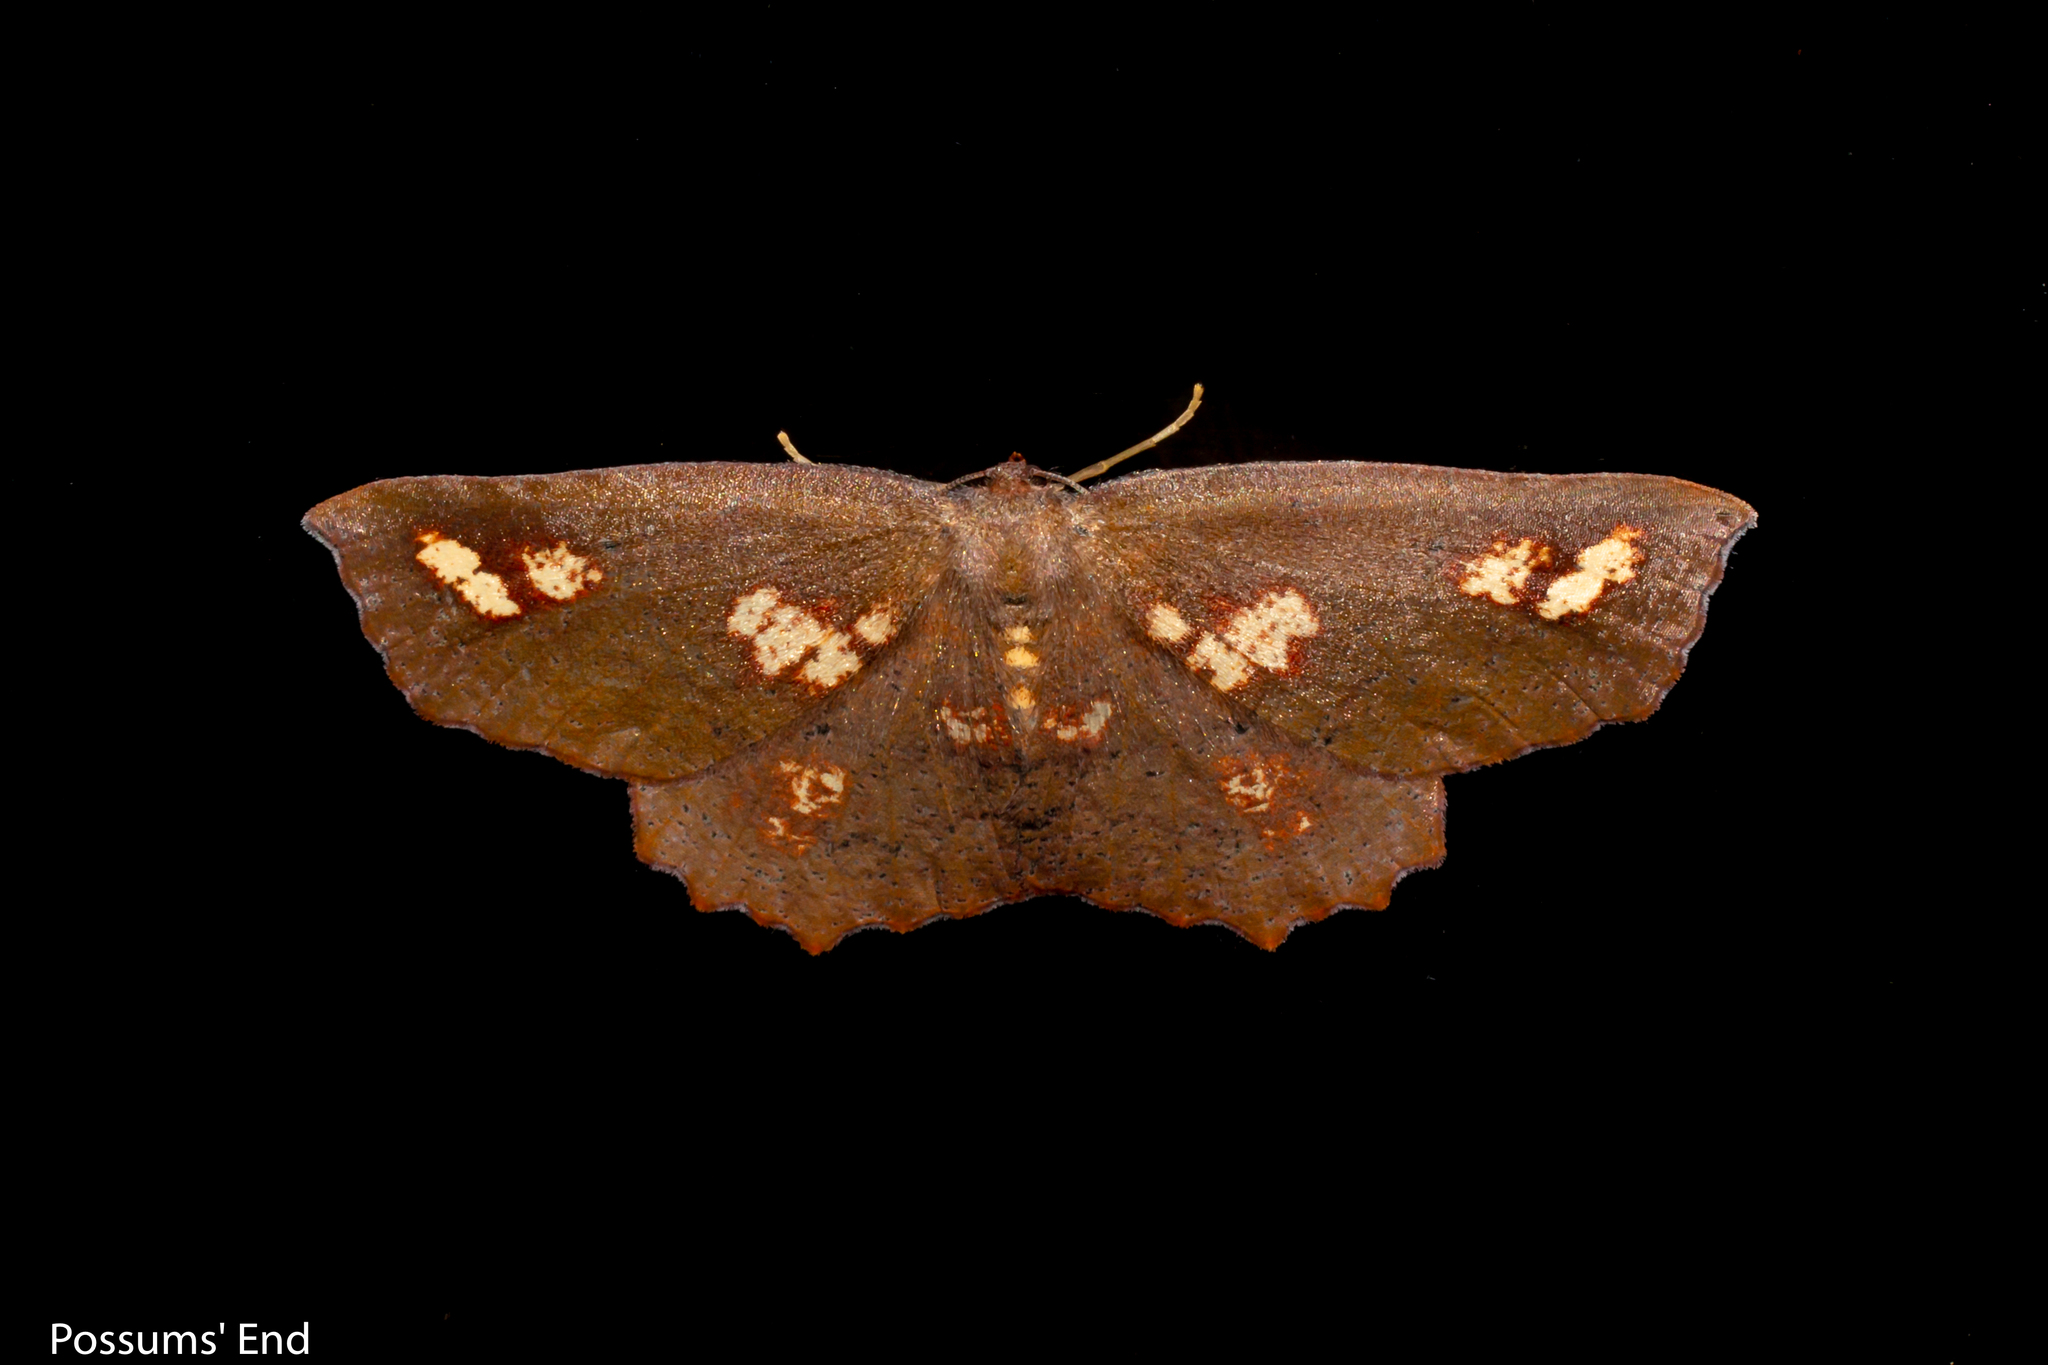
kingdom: Animalia
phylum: Arthropoda
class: Insecta
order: Lepidoptera
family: Geometridae
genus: Xyridacma
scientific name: Xyridacma ustaria
